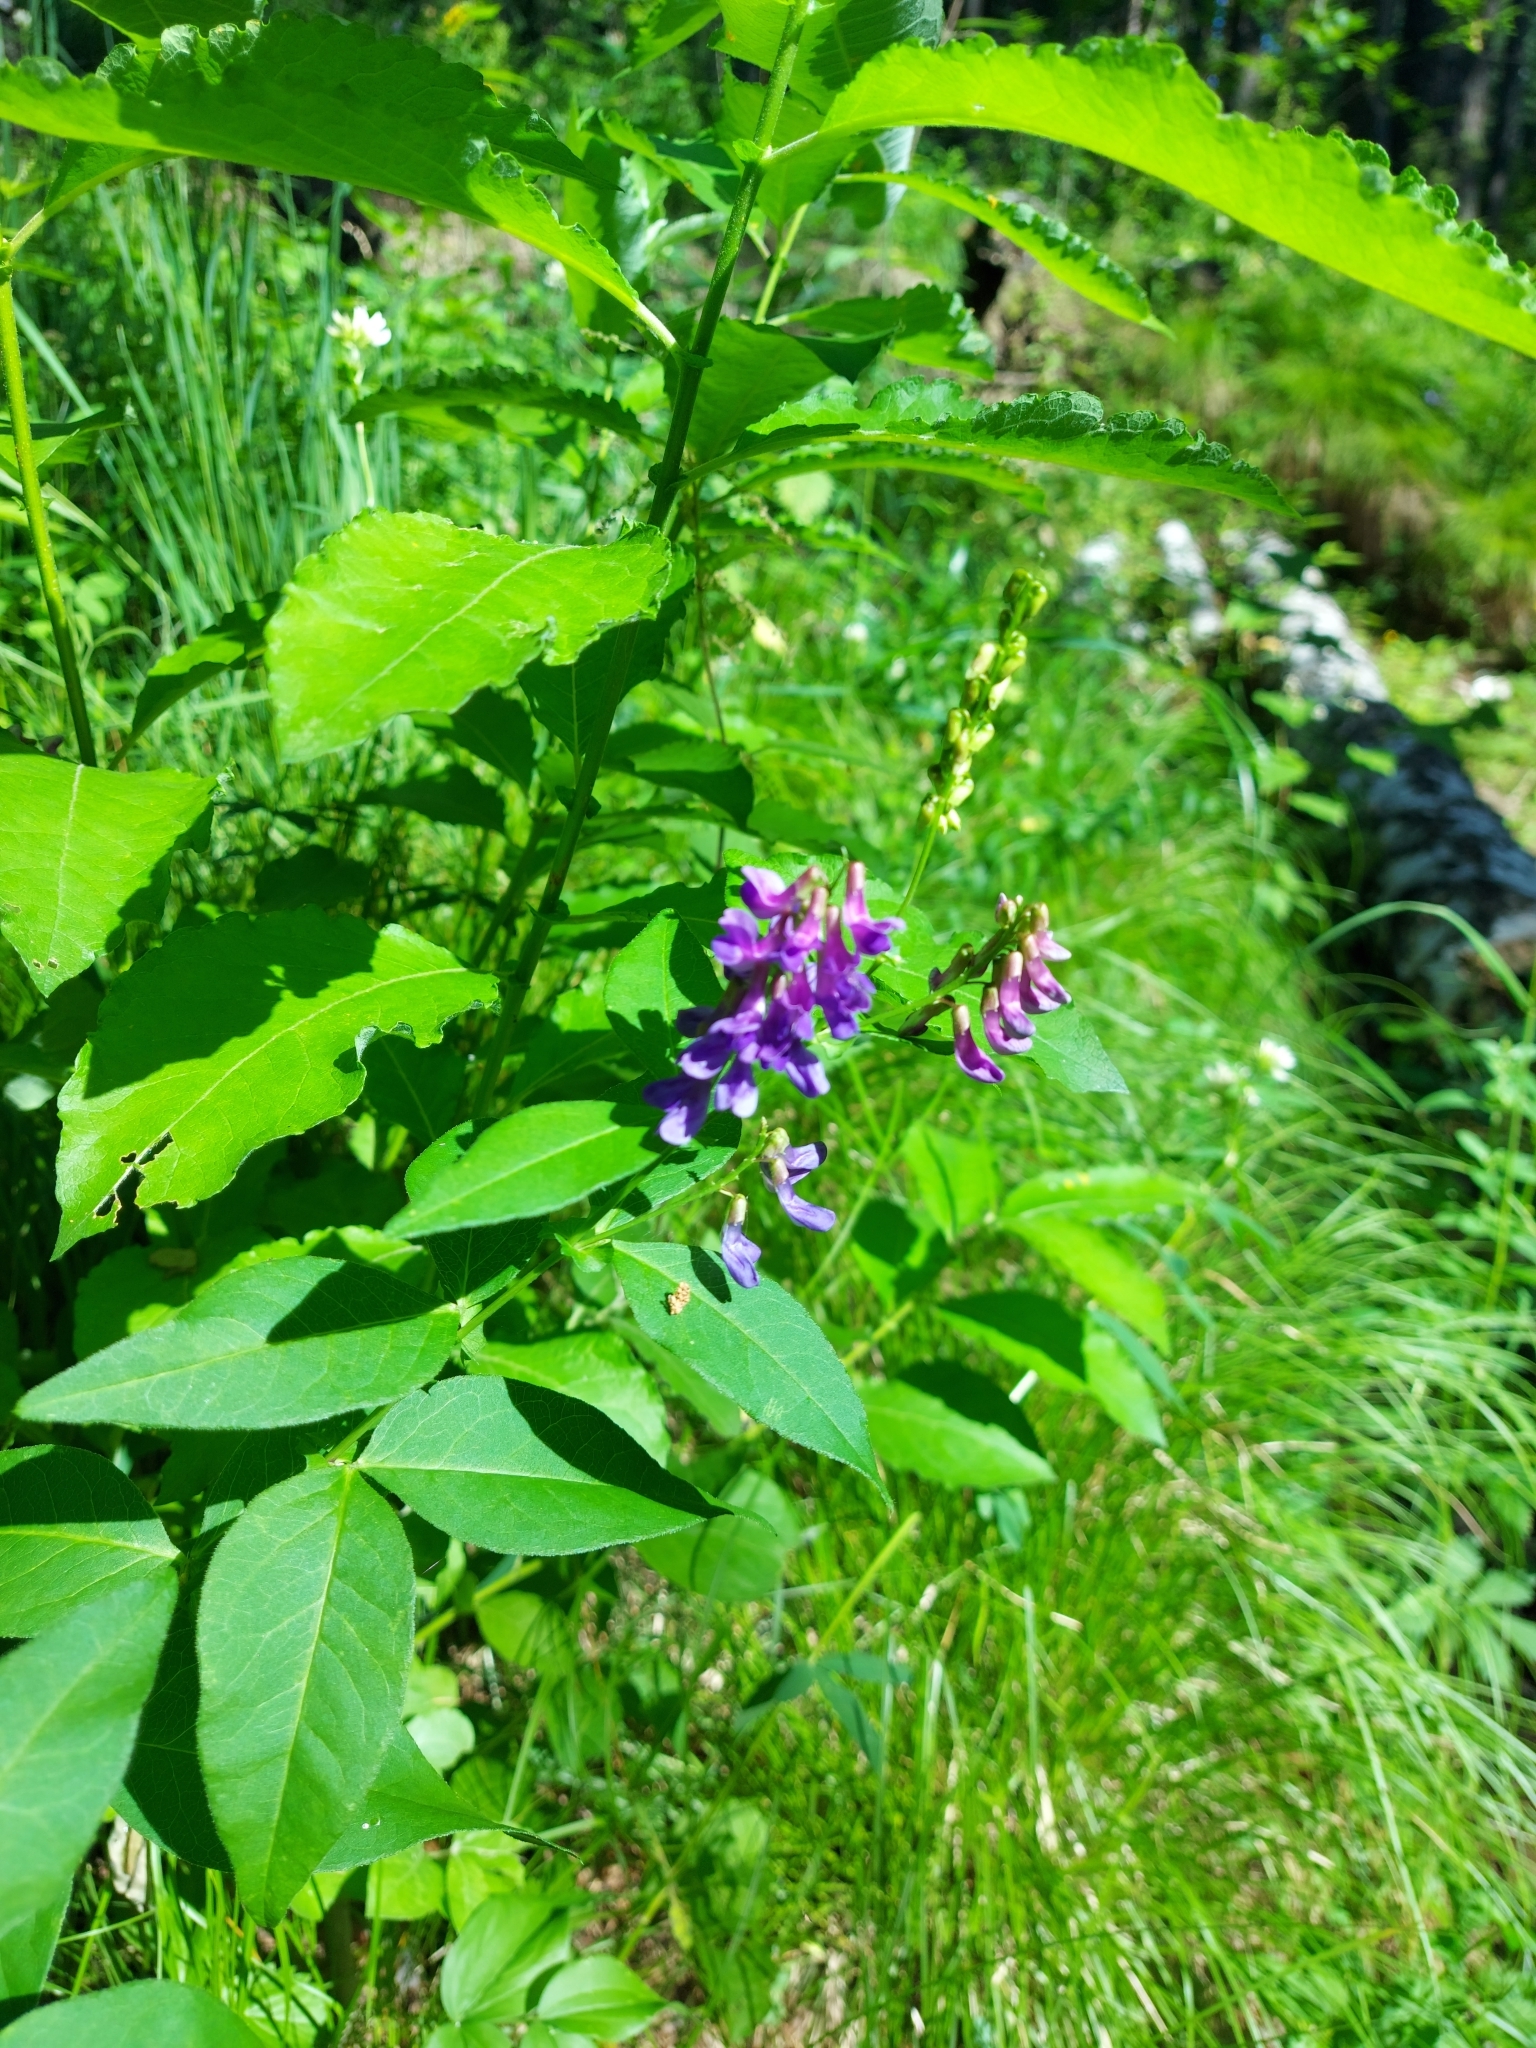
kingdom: Plantae
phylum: Tracheophyta
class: Magnoliopsida
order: Fabales
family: Fabaceae
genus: Vicia
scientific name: Vicia unijuga
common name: Two-leaf vetch
